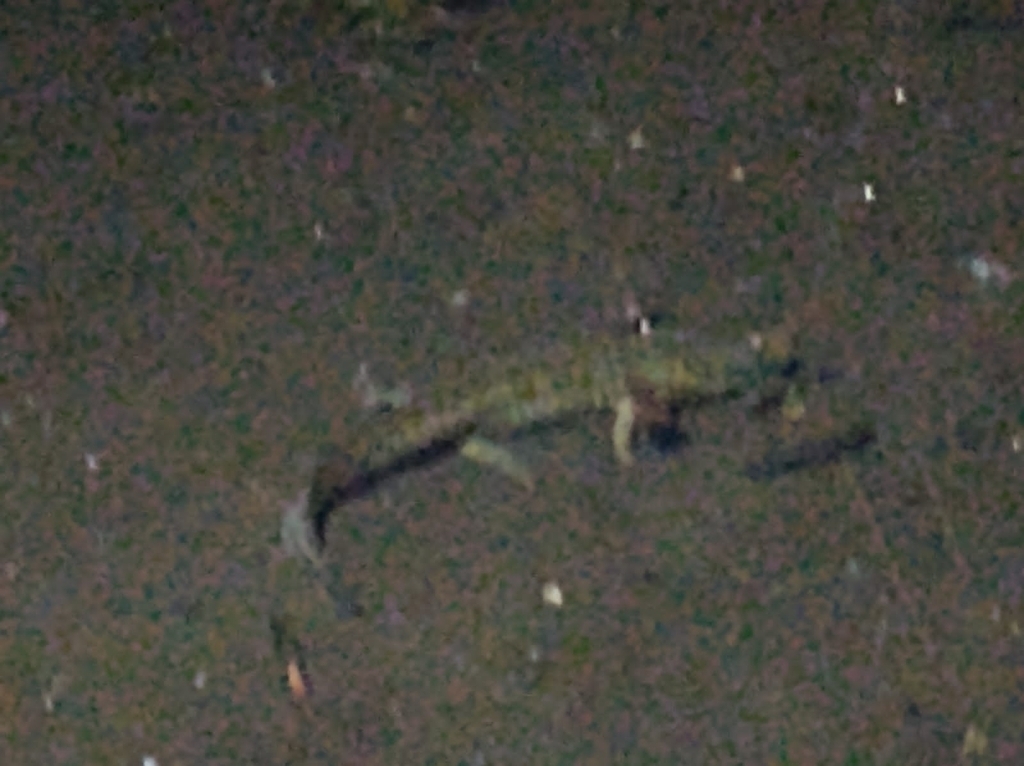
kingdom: Animalia
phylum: Chordata
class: Amphibia
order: Caudata
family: Ambystomatidae
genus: Ambystoma
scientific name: Ambystoma flavipiperatum
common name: Yellow-peppered salamander
